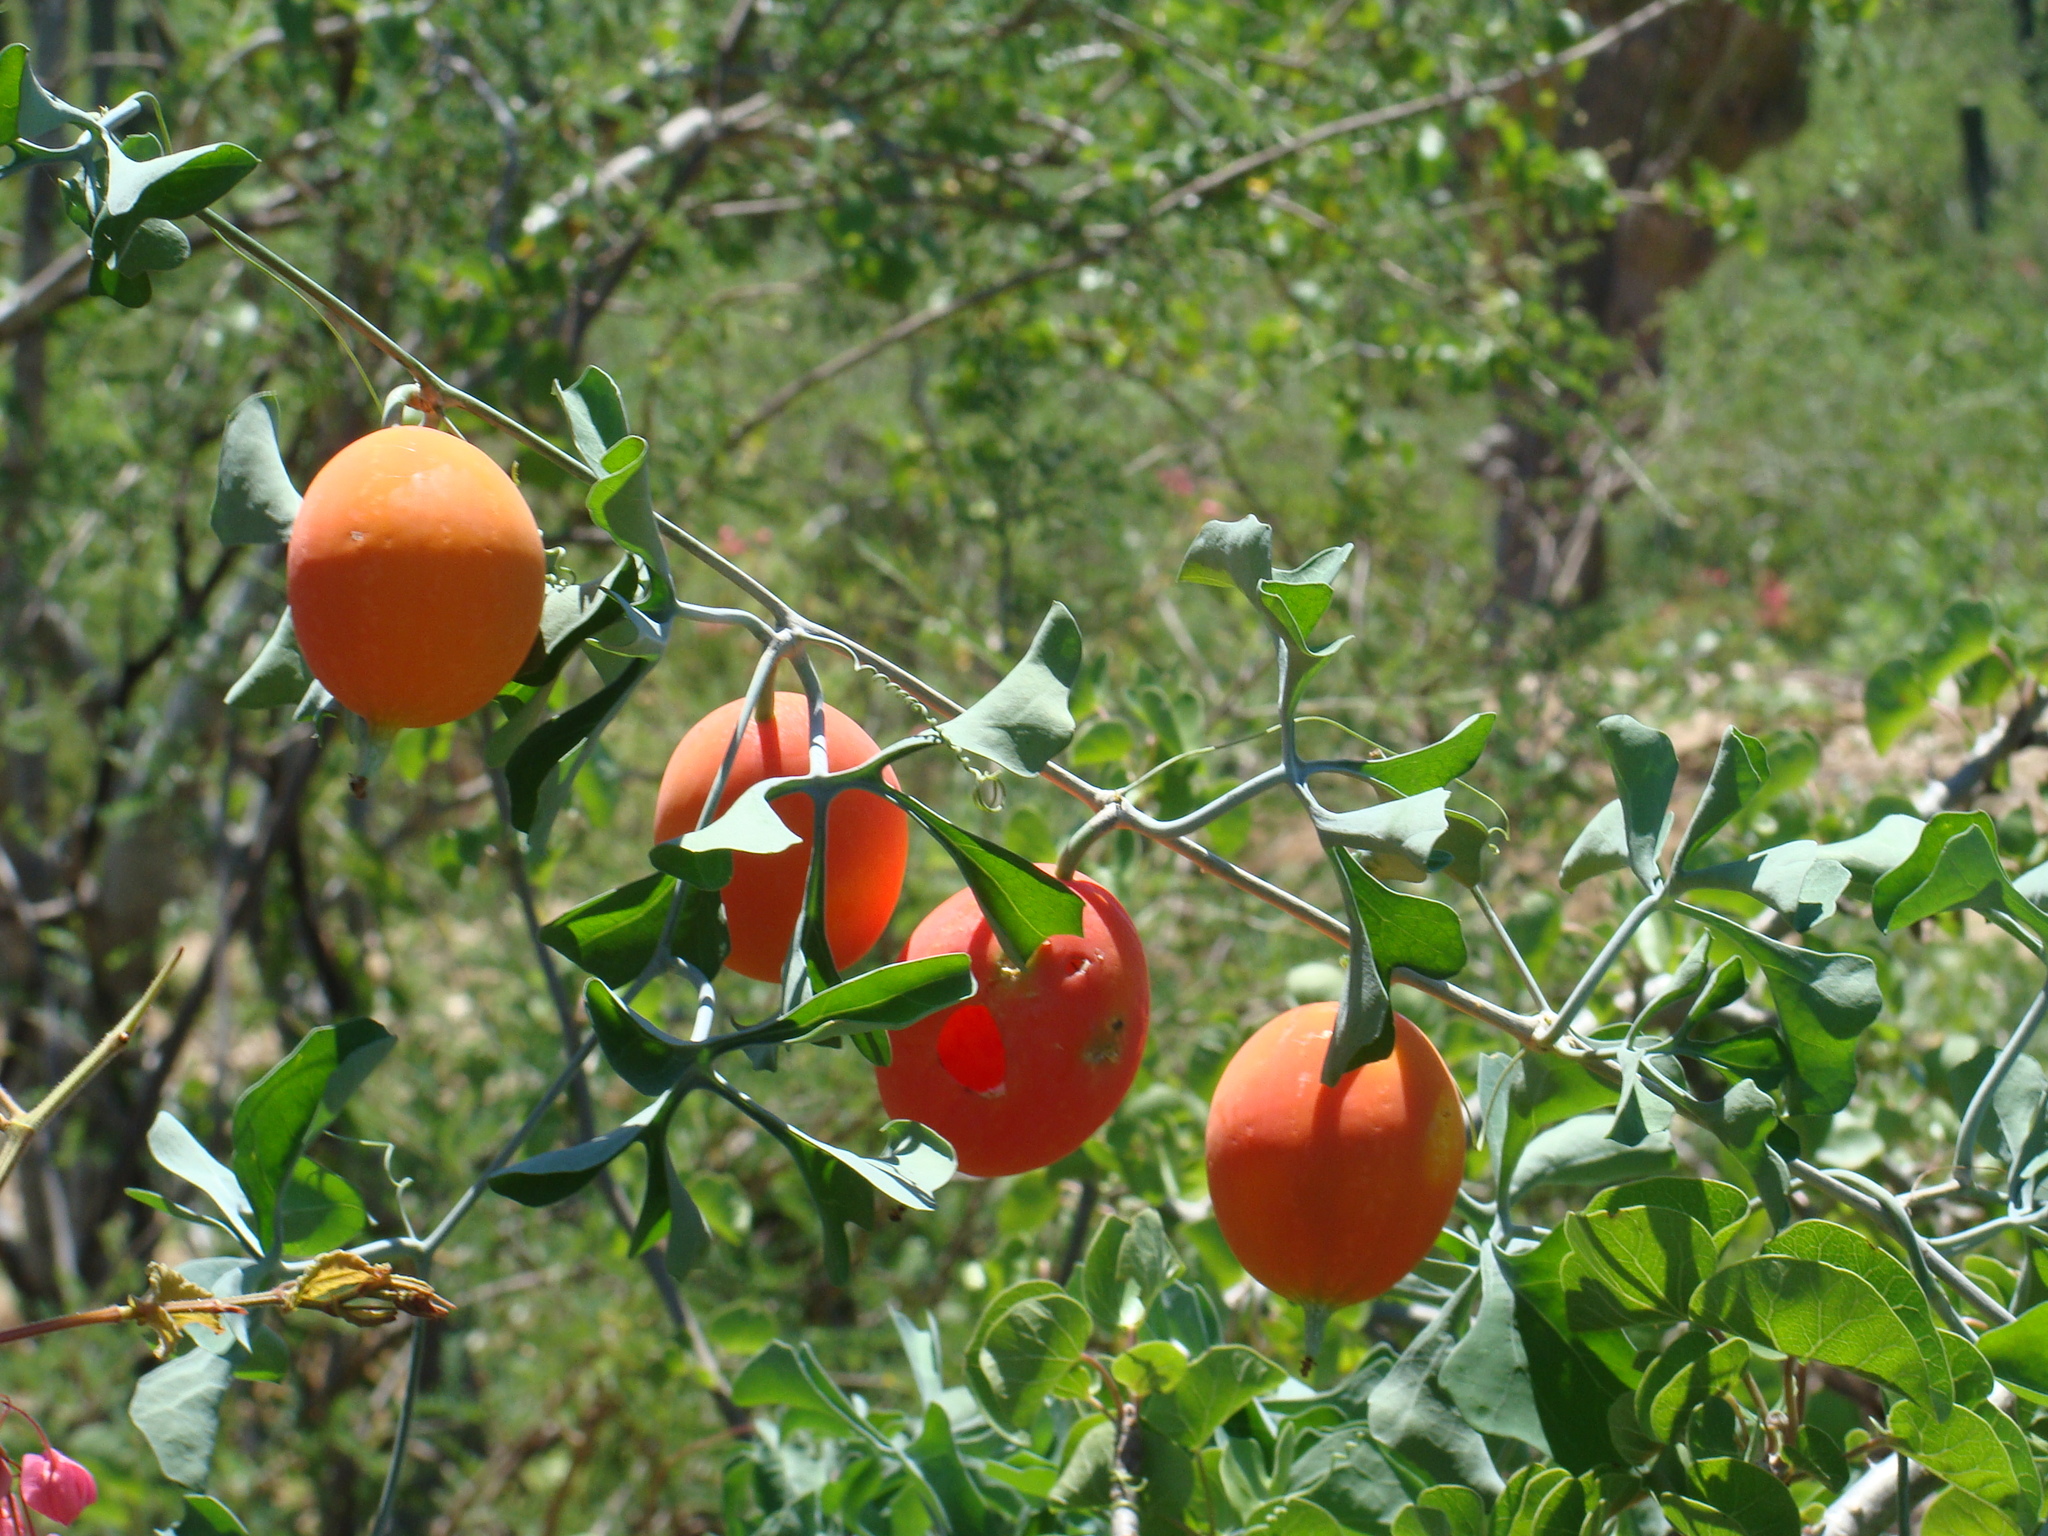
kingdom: Plantae
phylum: Tracheophyta
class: Magnoliopsida
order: Cucurbitales
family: Cucurbitaceae
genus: Ibervillea
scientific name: Ibervillea sonorae
